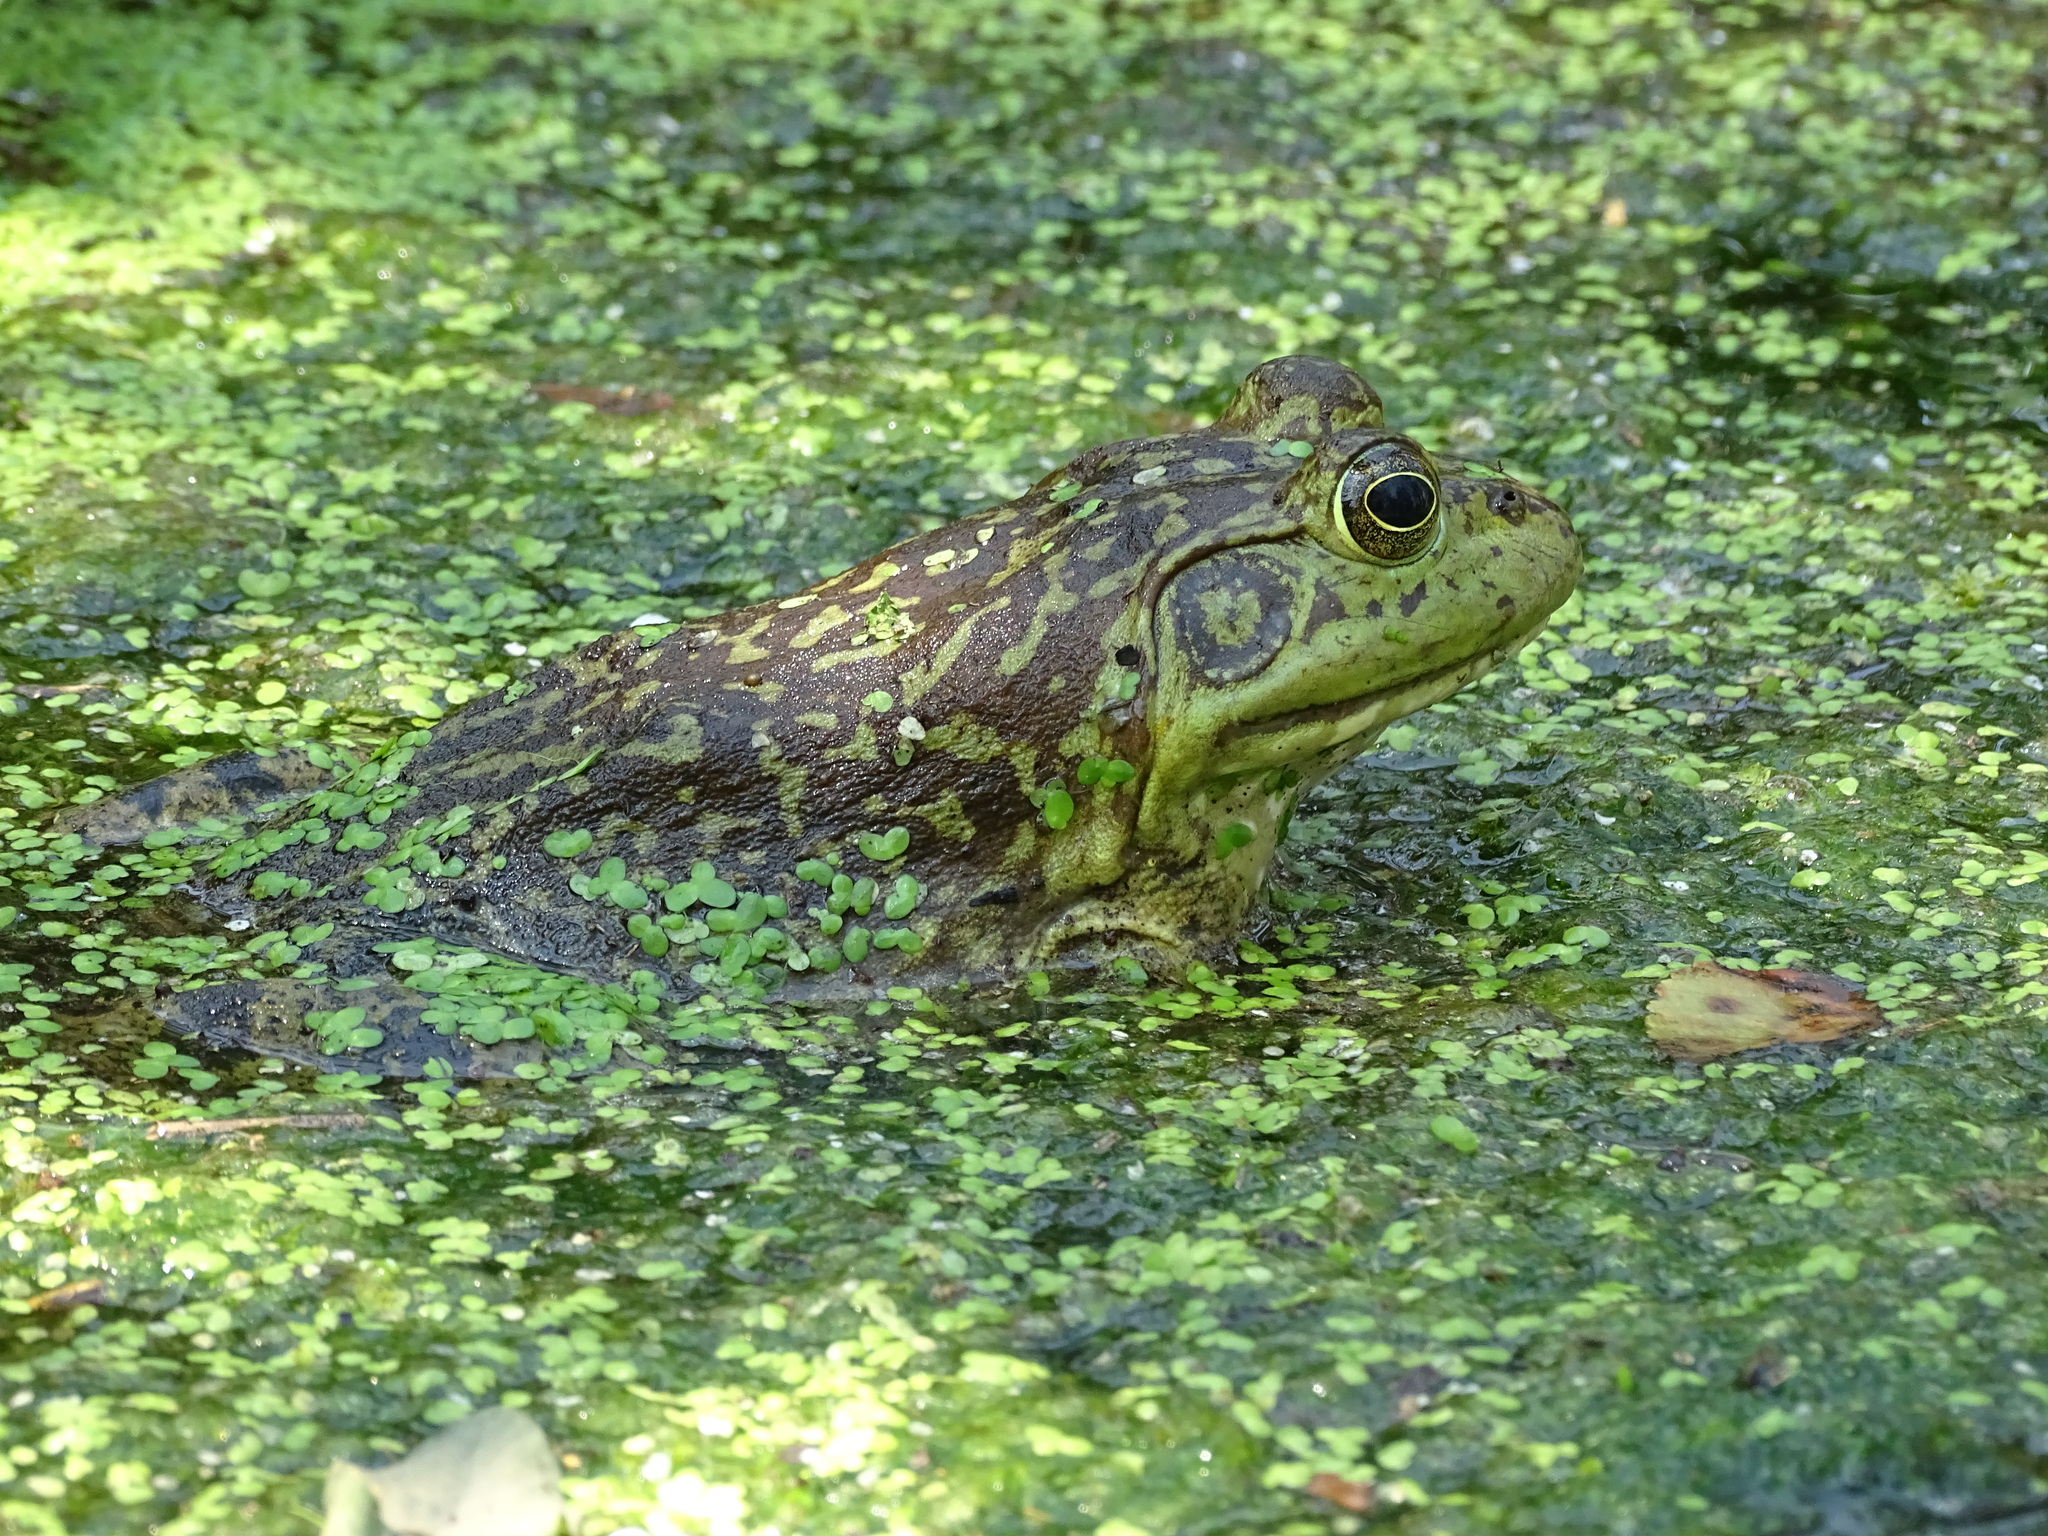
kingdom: Animalia
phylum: Chordata
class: Amphibia
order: Anura
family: Ranidae
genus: Lithobates
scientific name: Lithobates catesbeianus
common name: American bullfrog
